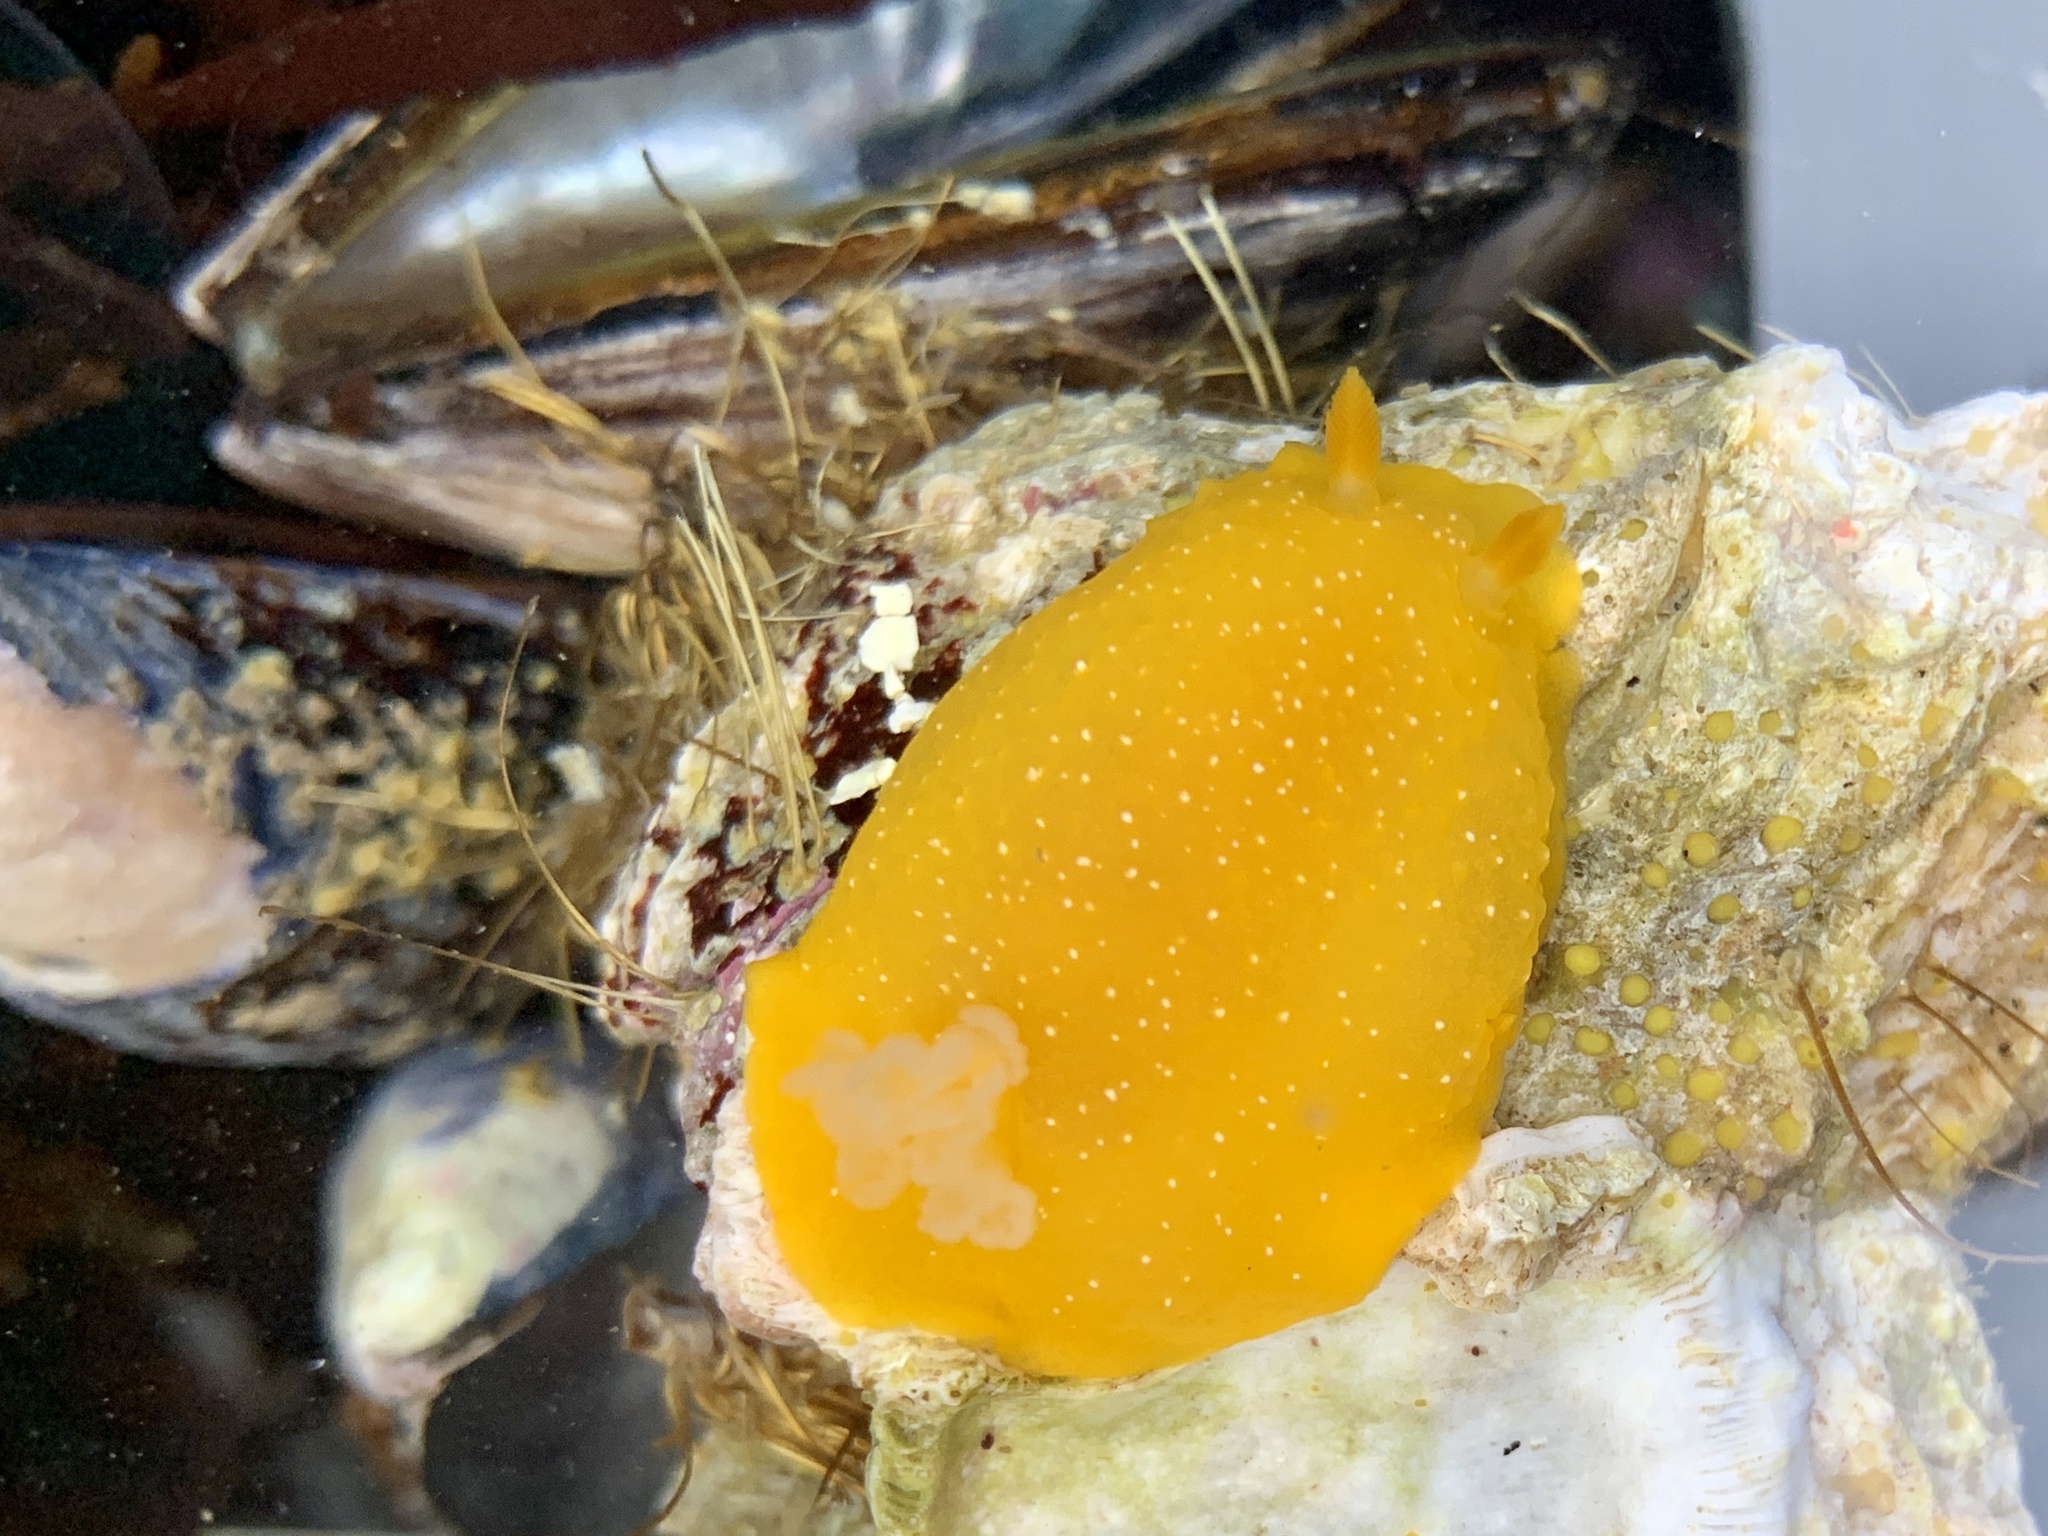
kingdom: Animalia
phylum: Mollusca
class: Gastropoda
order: Nudibranchia
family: Dendrodorididae
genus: Doriopsilla
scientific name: Doriopsilla fulva
